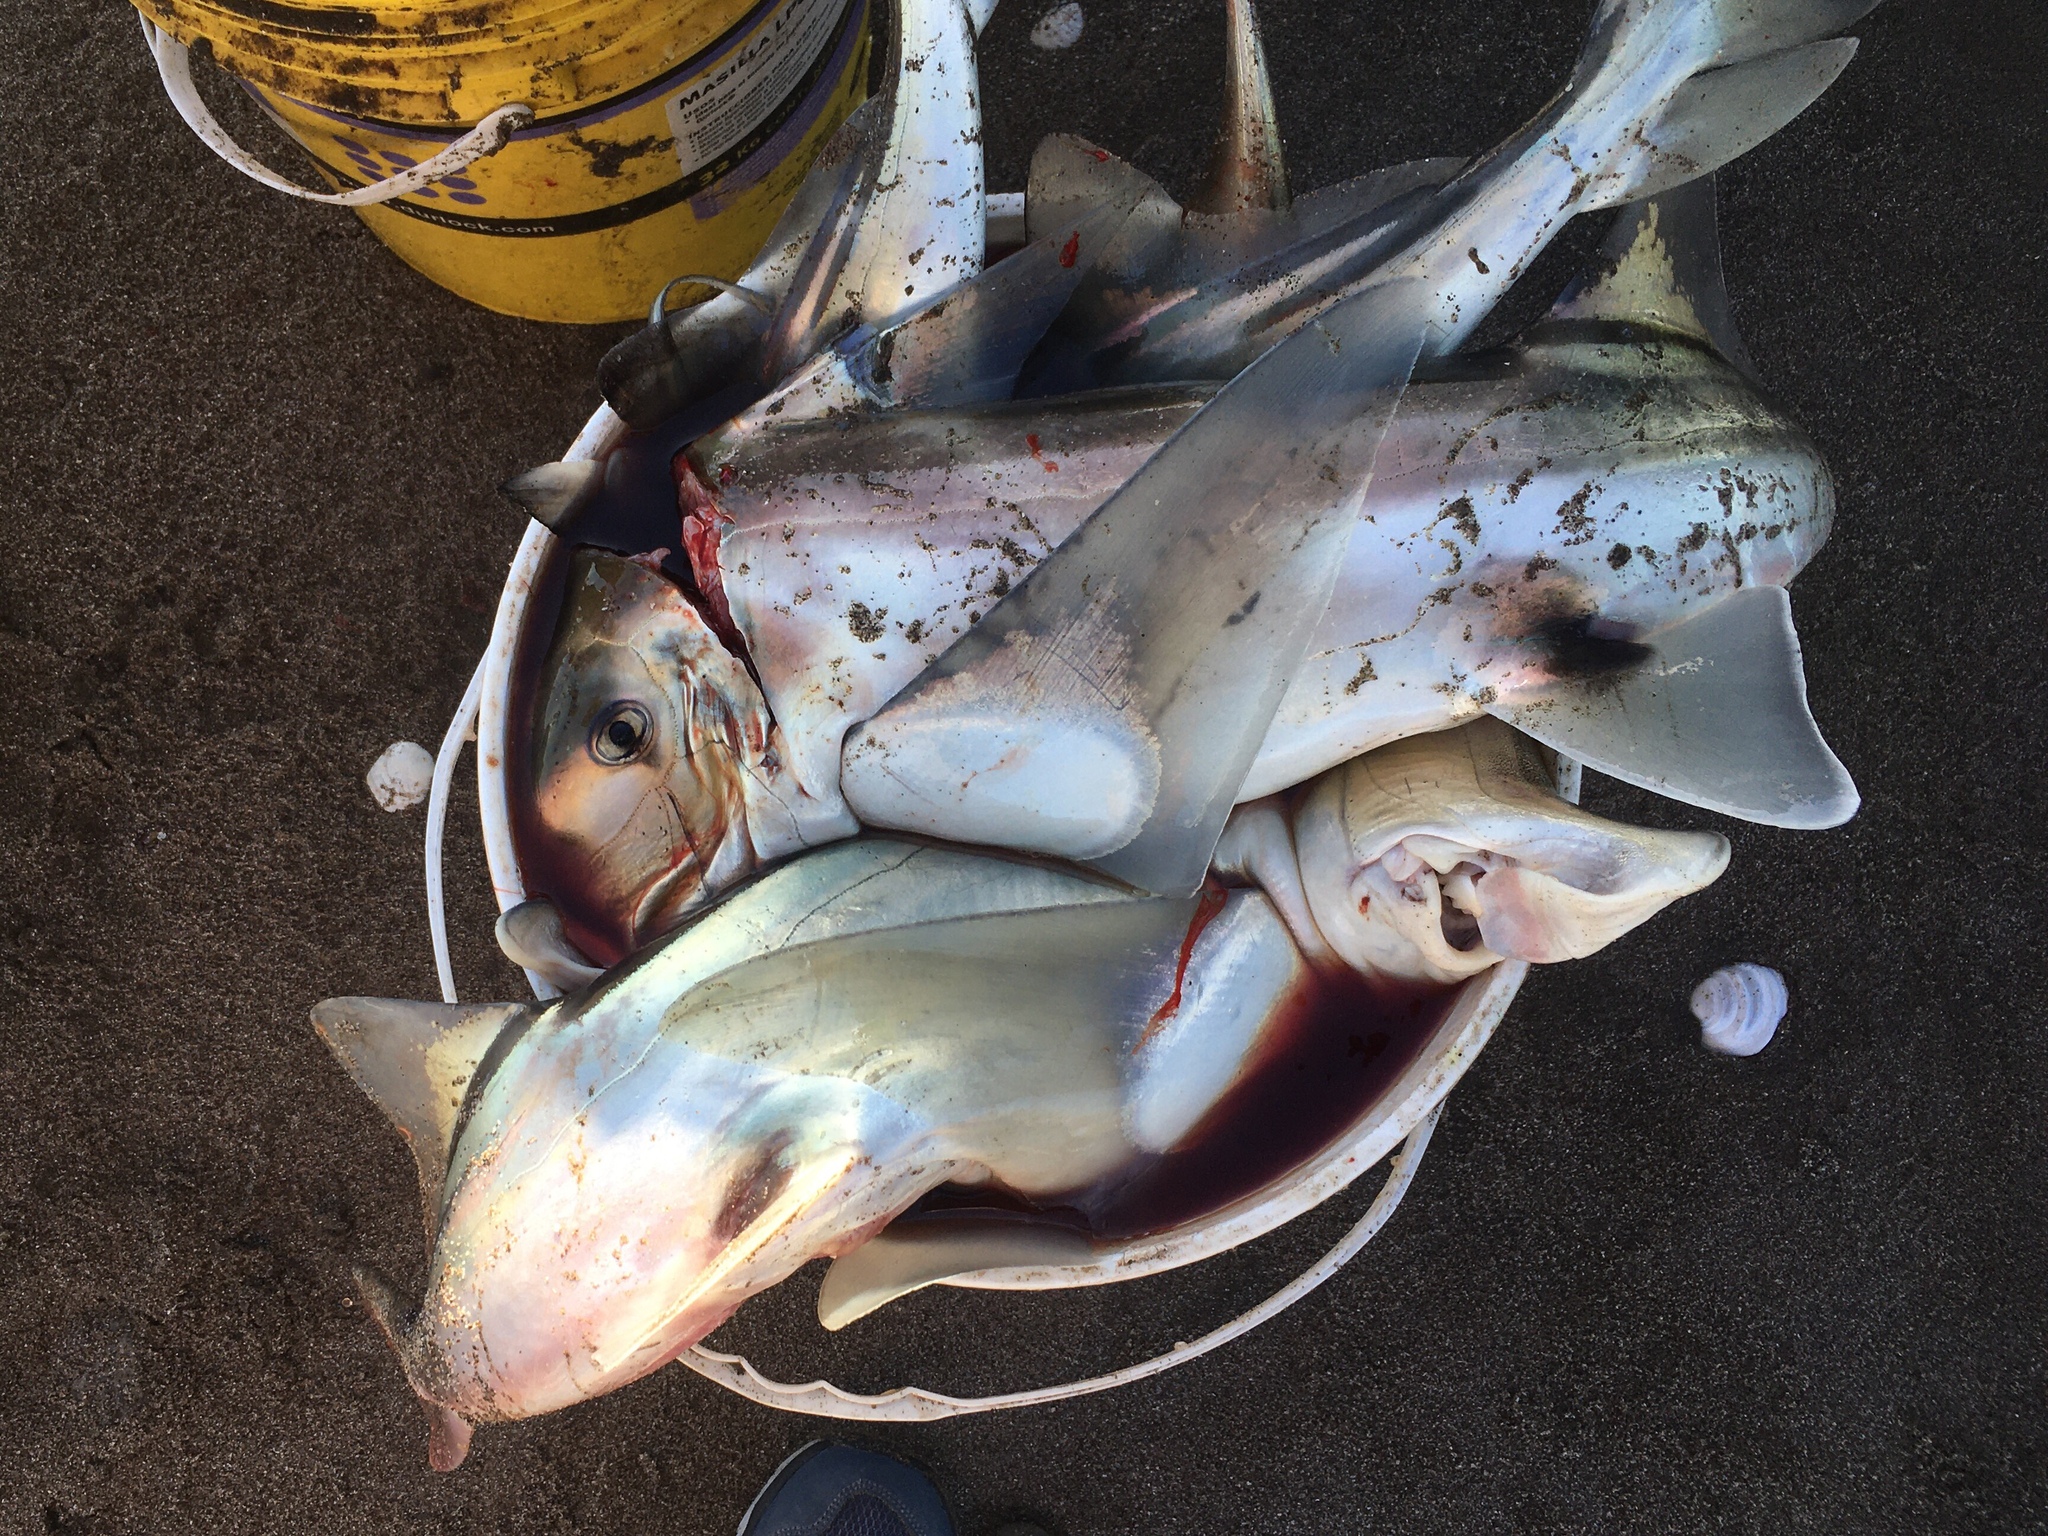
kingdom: Animalia
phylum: Chordata
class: Holocephali
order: Chimaeriformes
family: Callorhinchidae
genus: Callorhinchus
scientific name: Callorhinchus callorynchus
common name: Elephant fish
